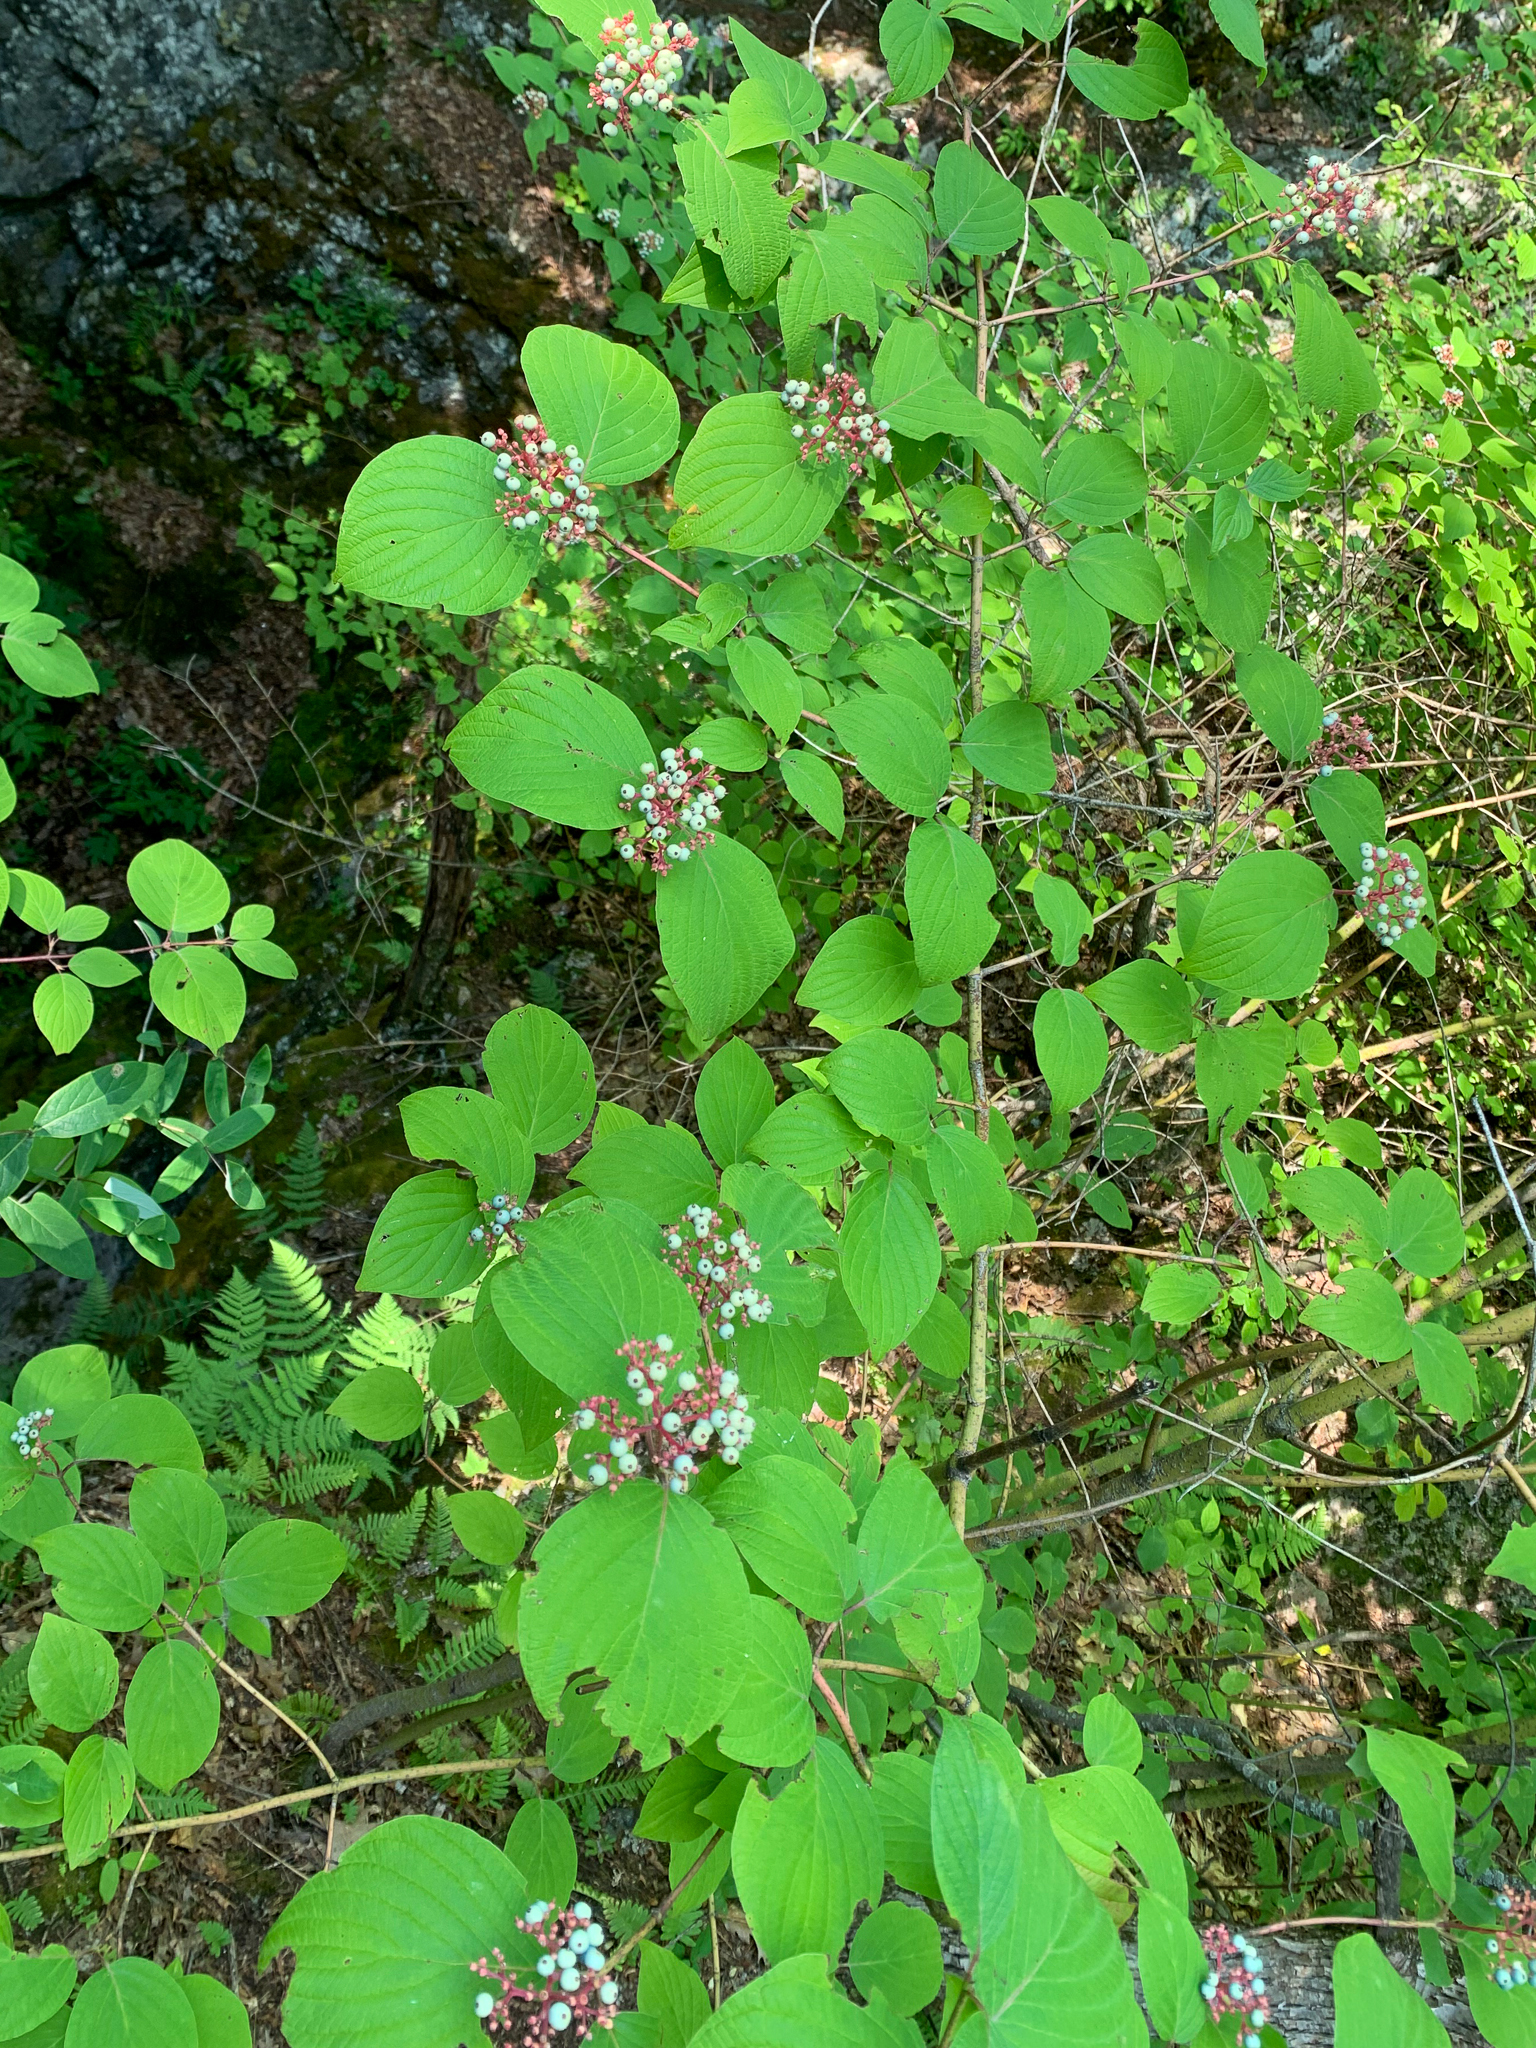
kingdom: Plantae
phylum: Tracheophyta
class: Magnoliopsida
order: Cornales
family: Cornaceae
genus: Cornus
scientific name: Cornus rugosa
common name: Round-leaf dogwood
